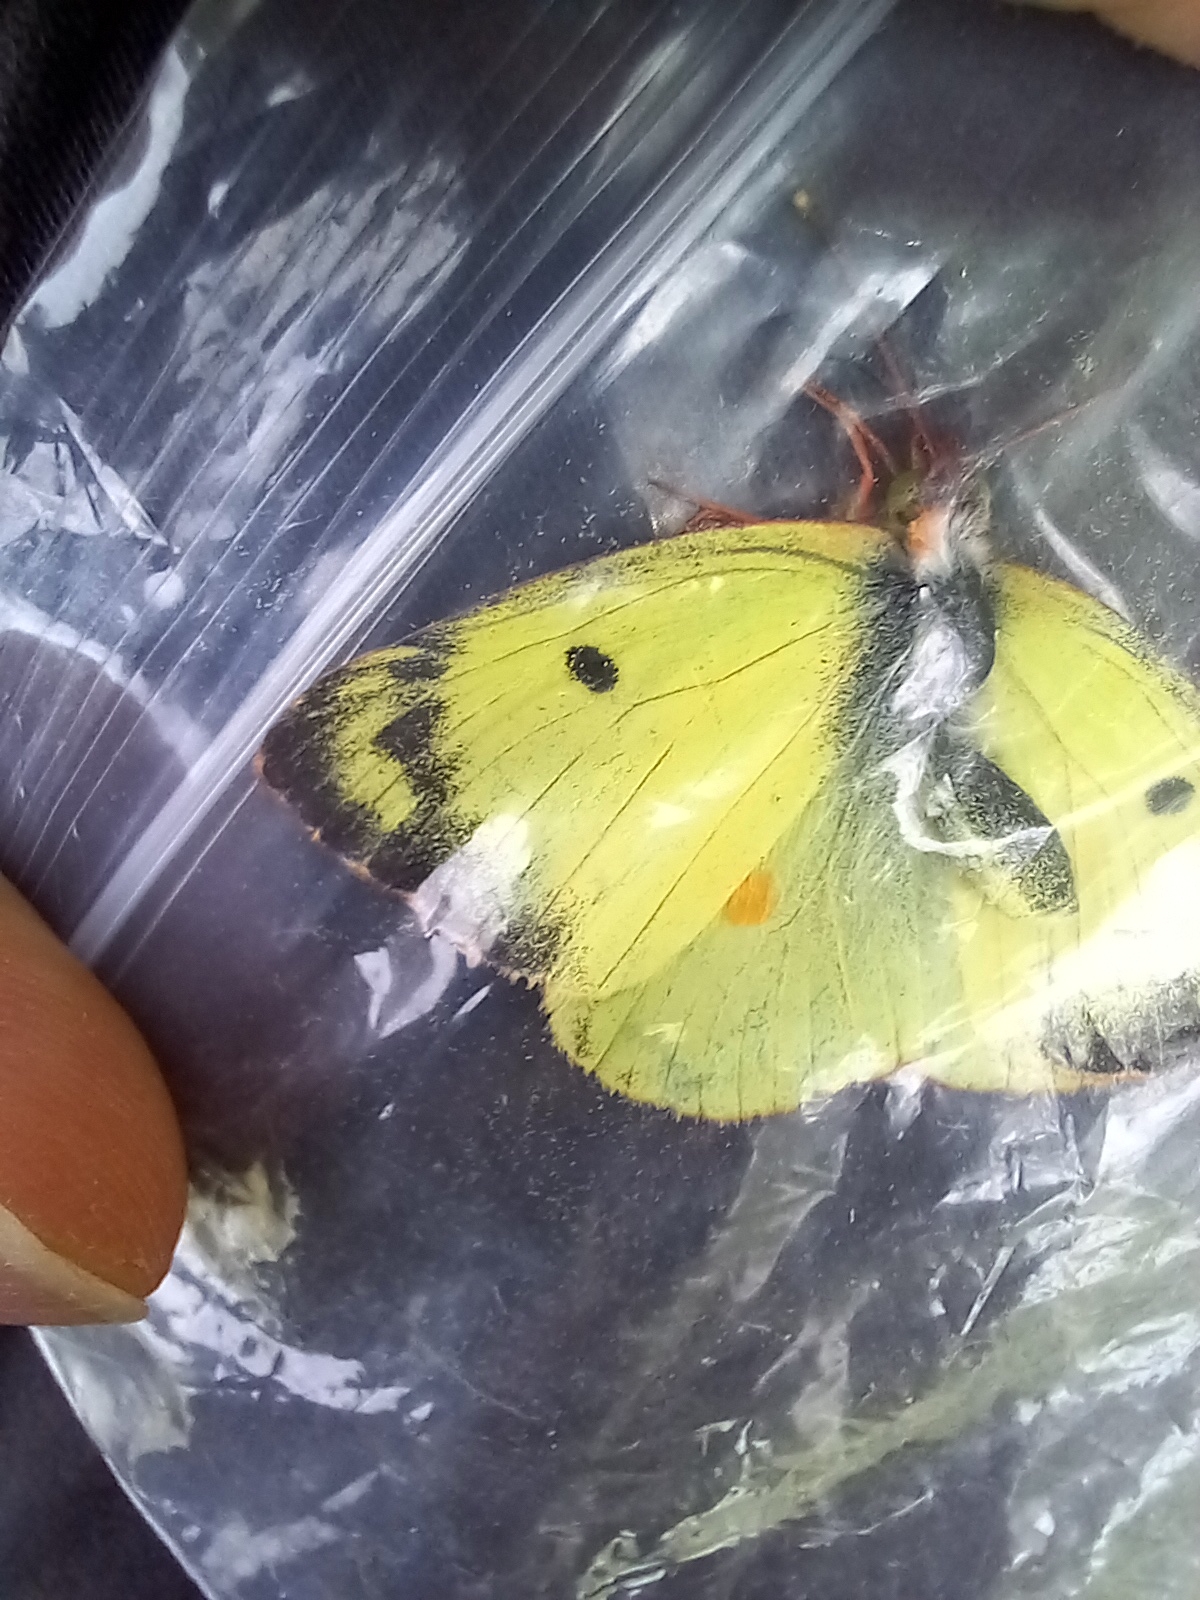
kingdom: Animalia
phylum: Arthropoda
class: Insecta
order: Lepidoptera
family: Pieridae
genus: Colias
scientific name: Colias alfacariensis
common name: Berger's clouded yellow
